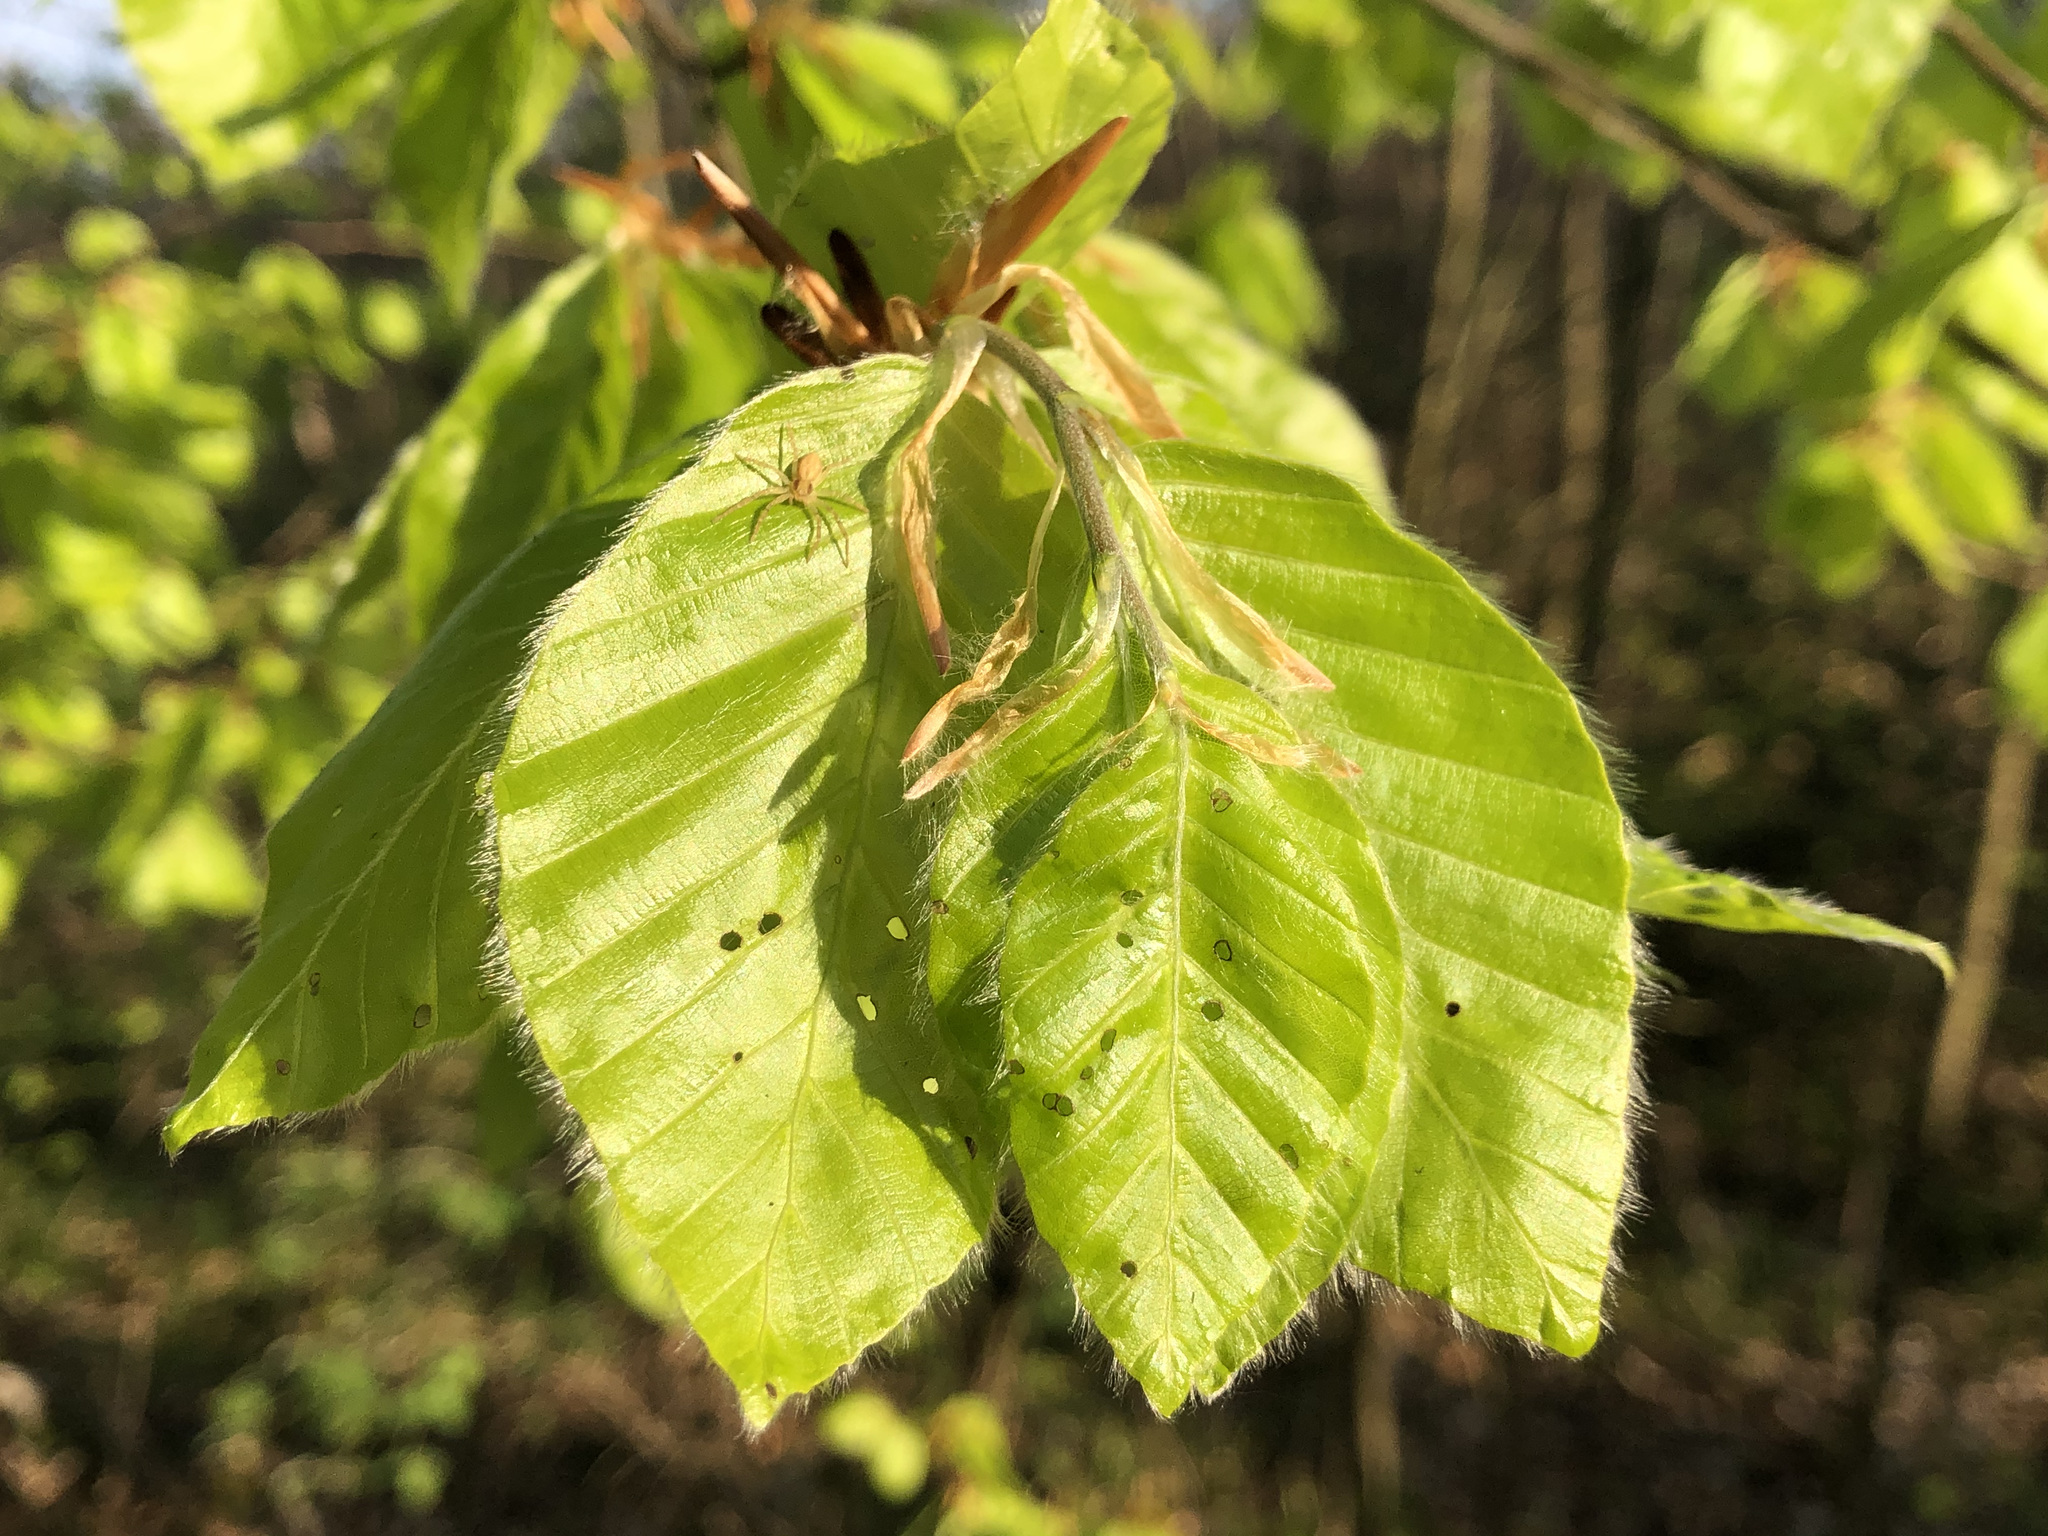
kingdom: Plantae
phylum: Tracheophyta
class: Magnoliopsida
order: Fagales
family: Fagaceae
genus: Fagus
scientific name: Fagus sylvatica
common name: Beech
